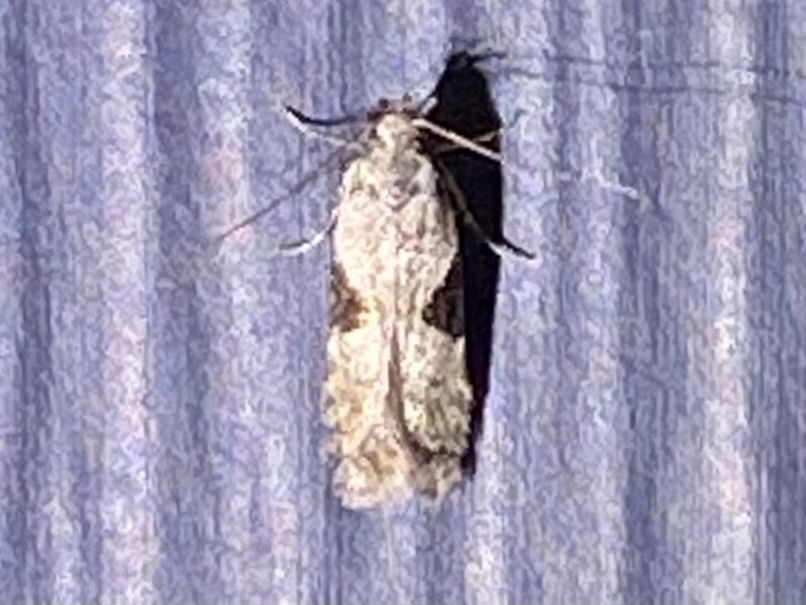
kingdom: Animalia
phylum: Arthropoda
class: Insecta
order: Lepidoptera
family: Gelechiidae
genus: Aristotelia
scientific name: Aristotelia isopelta
